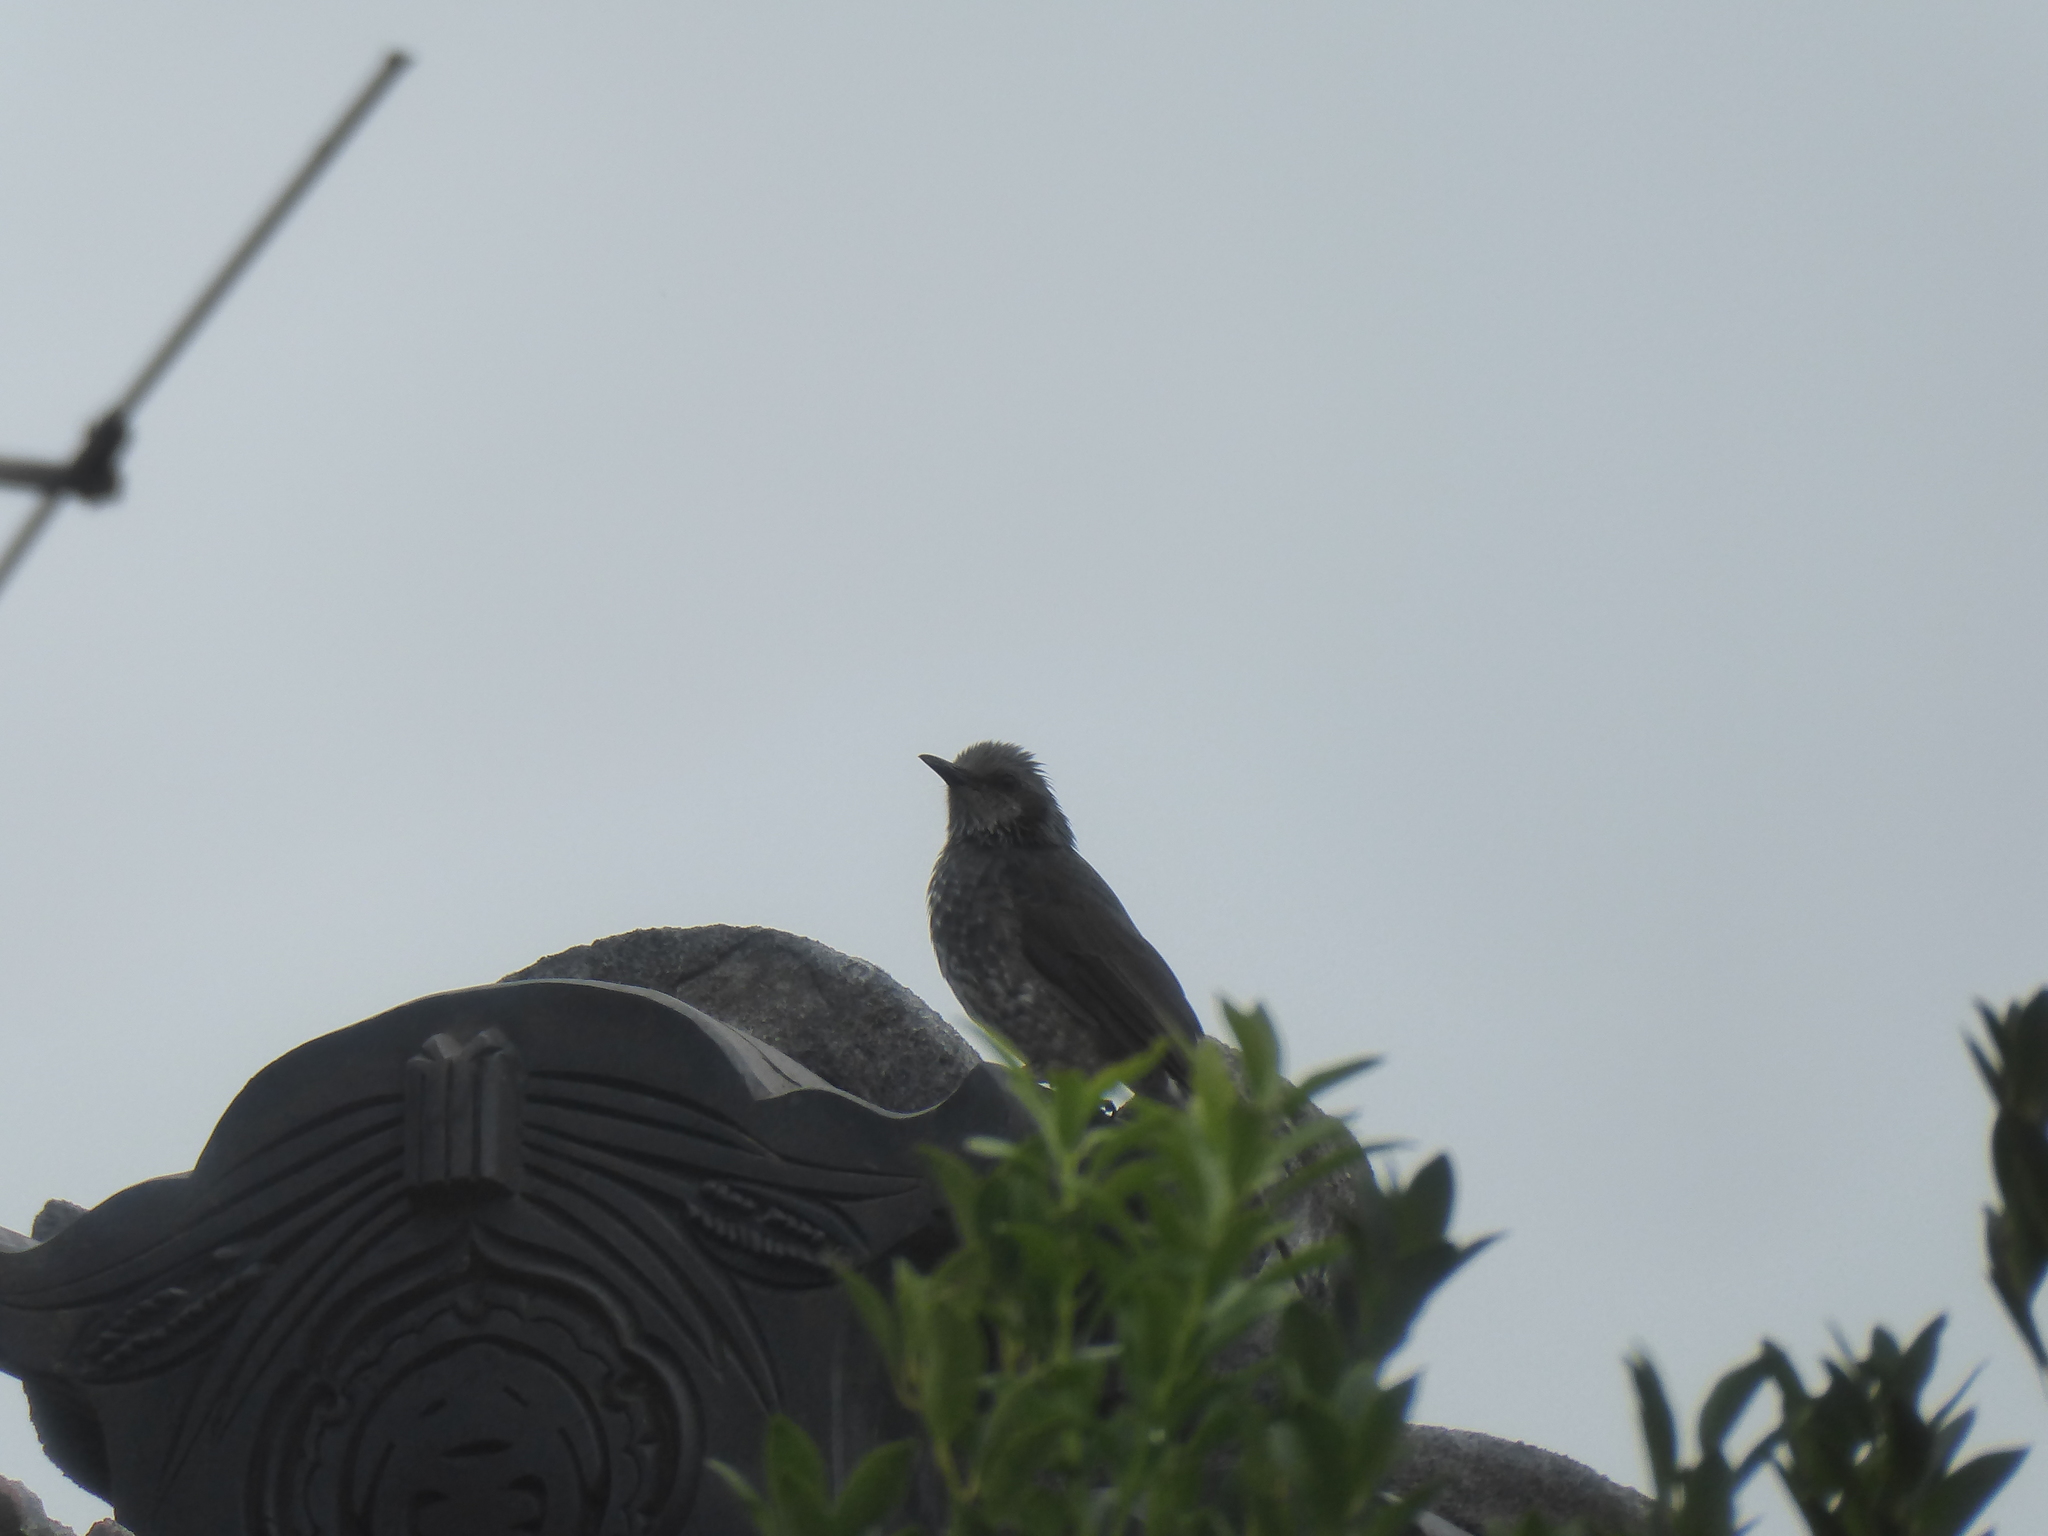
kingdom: Animalia
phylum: Chordata
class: Aves
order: Passeriformes
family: Pycnonotidae
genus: Hypsipetes
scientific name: Hypsipetes amaurotis
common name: Brown-eared bulbul
